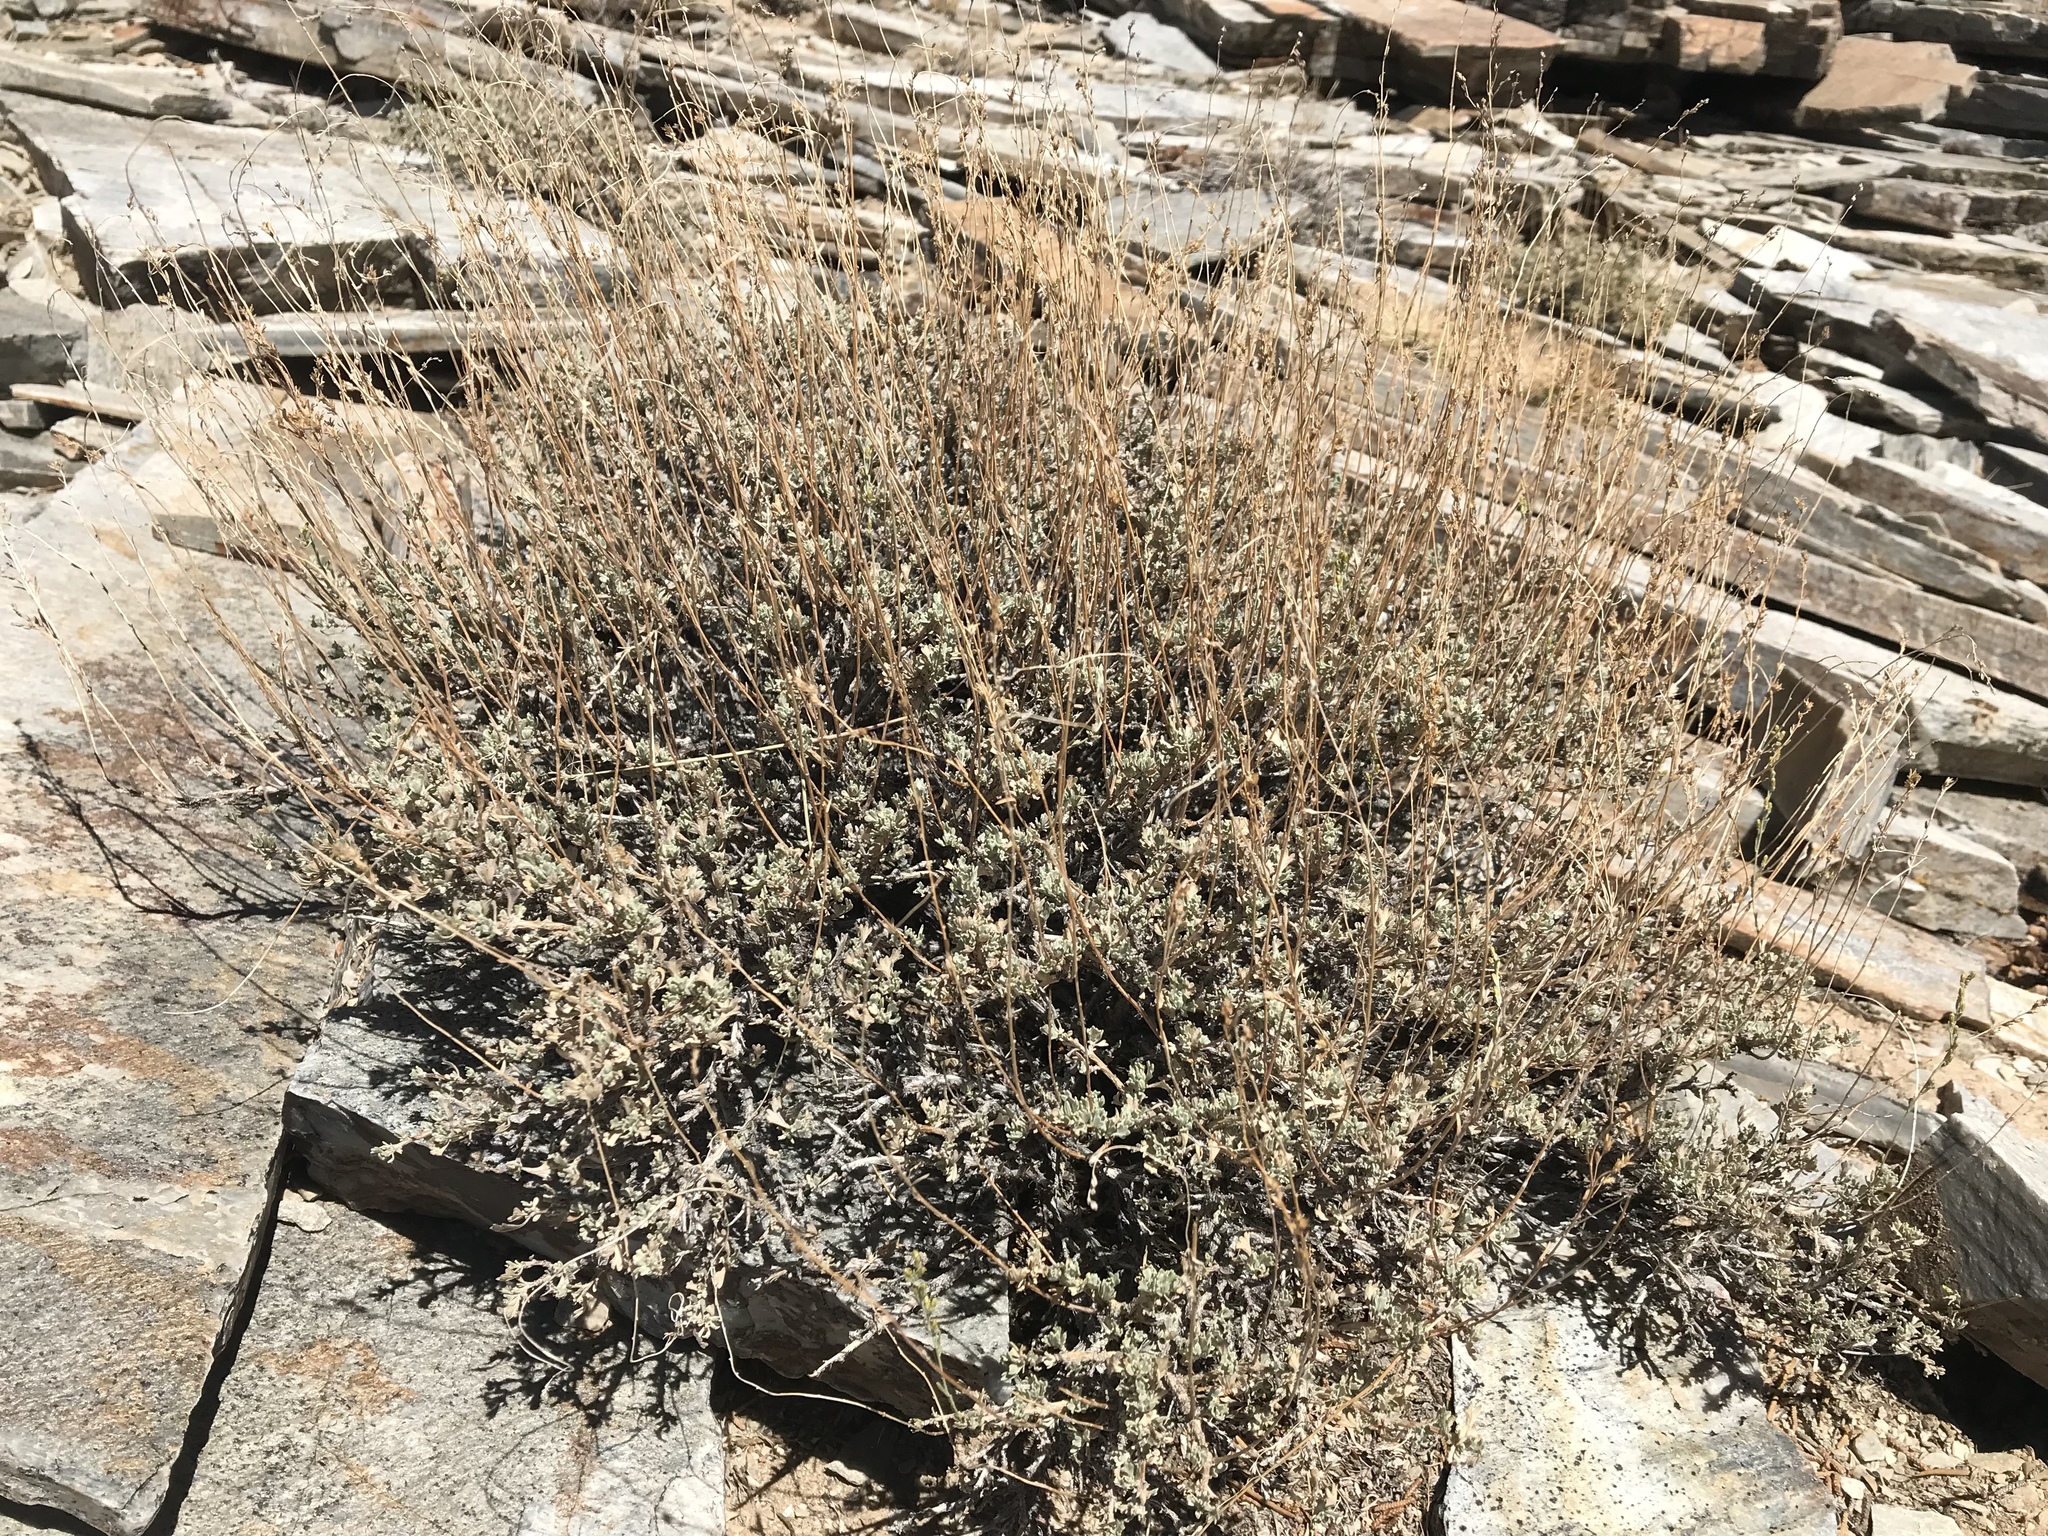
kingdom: Plantae
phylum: Tracheophyta
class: Magnoliopsida
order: Asterales
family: Asteraceae
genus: Artemisia
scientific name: Artemisia nova
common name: Black-sage
